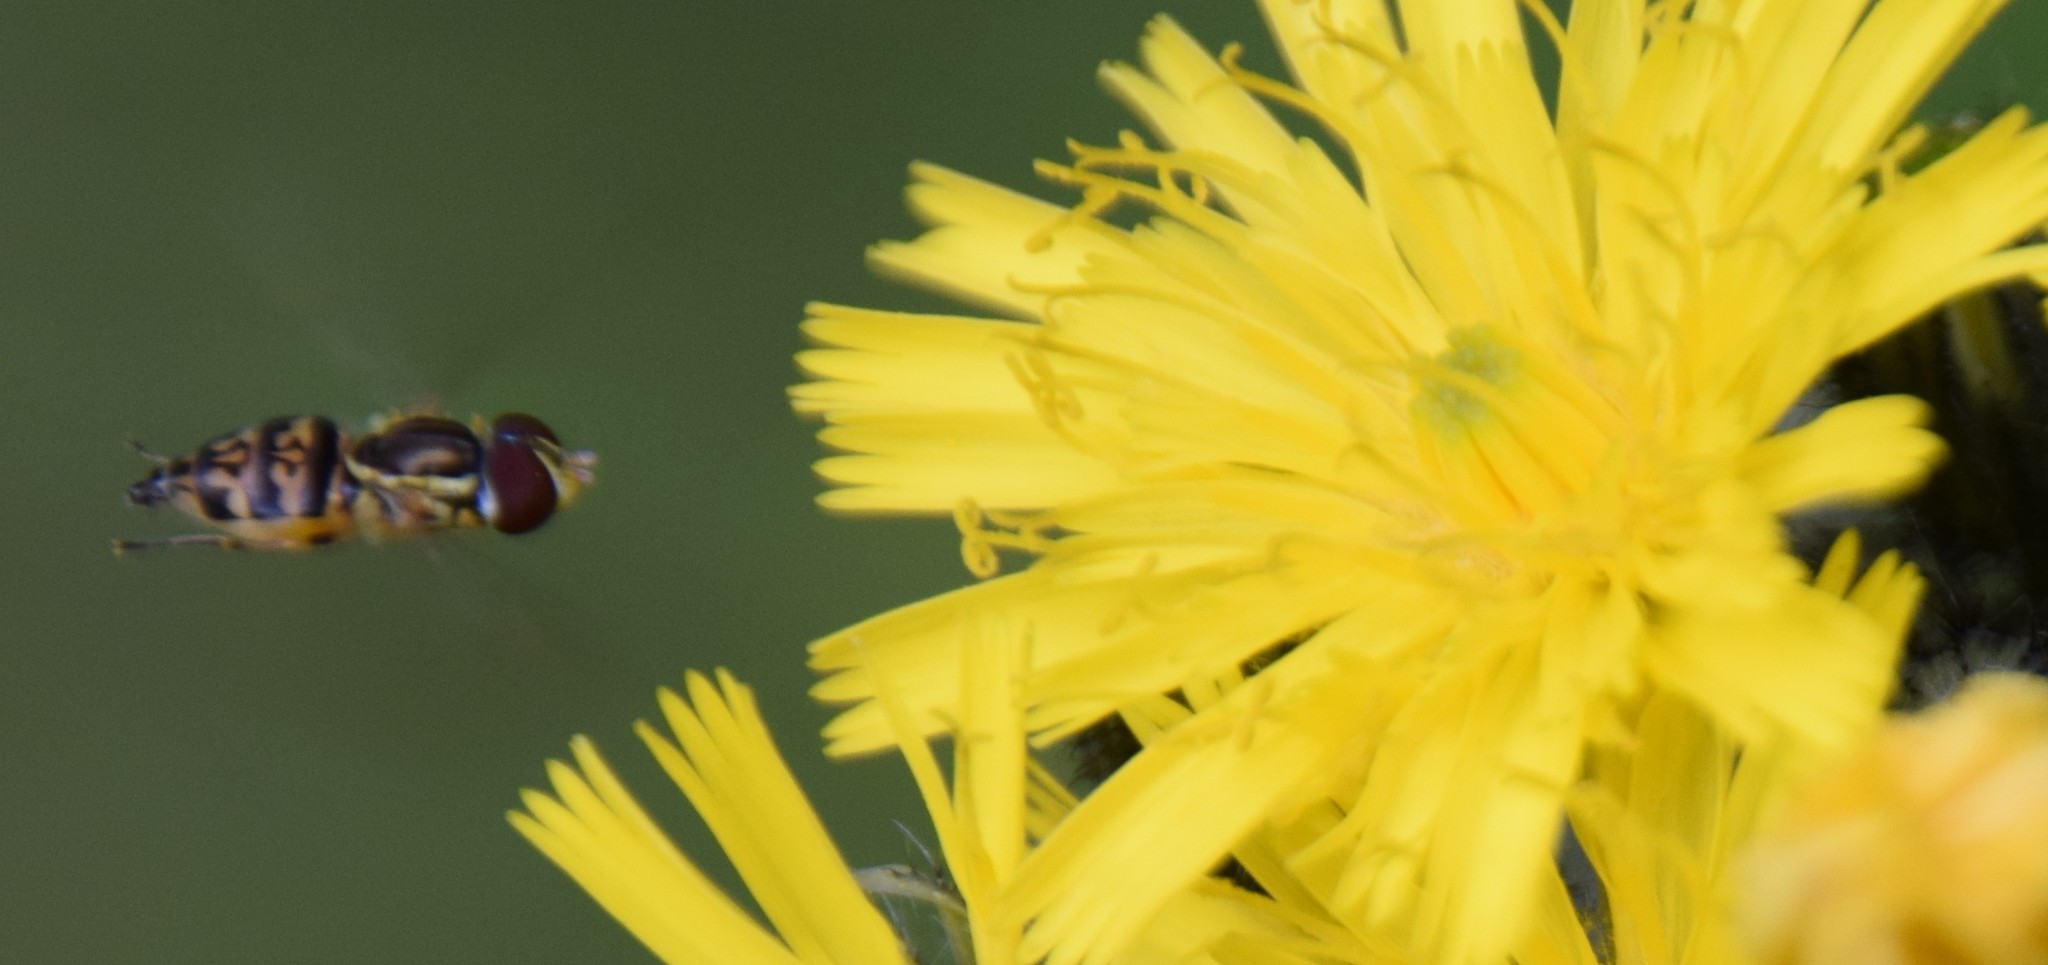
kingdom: Animalia
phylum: Arthropoda
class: Insecta
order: Diptera
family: Syrphidae
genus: Toxomerus
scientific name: Toxomerus geminatus
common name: Eastern calligrapher
